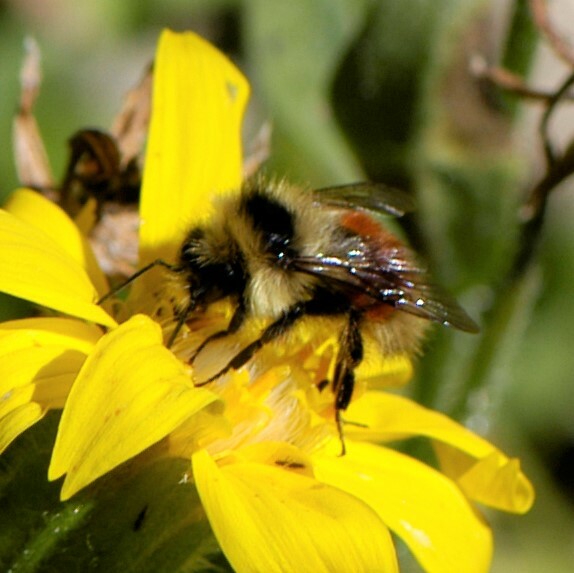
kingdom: Animalia
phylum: Arthropoda
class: Insecta
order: Hymenoptera
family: Apidae
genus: Bombus
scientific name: Bombus sylvicola
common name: Forest bumble bee
